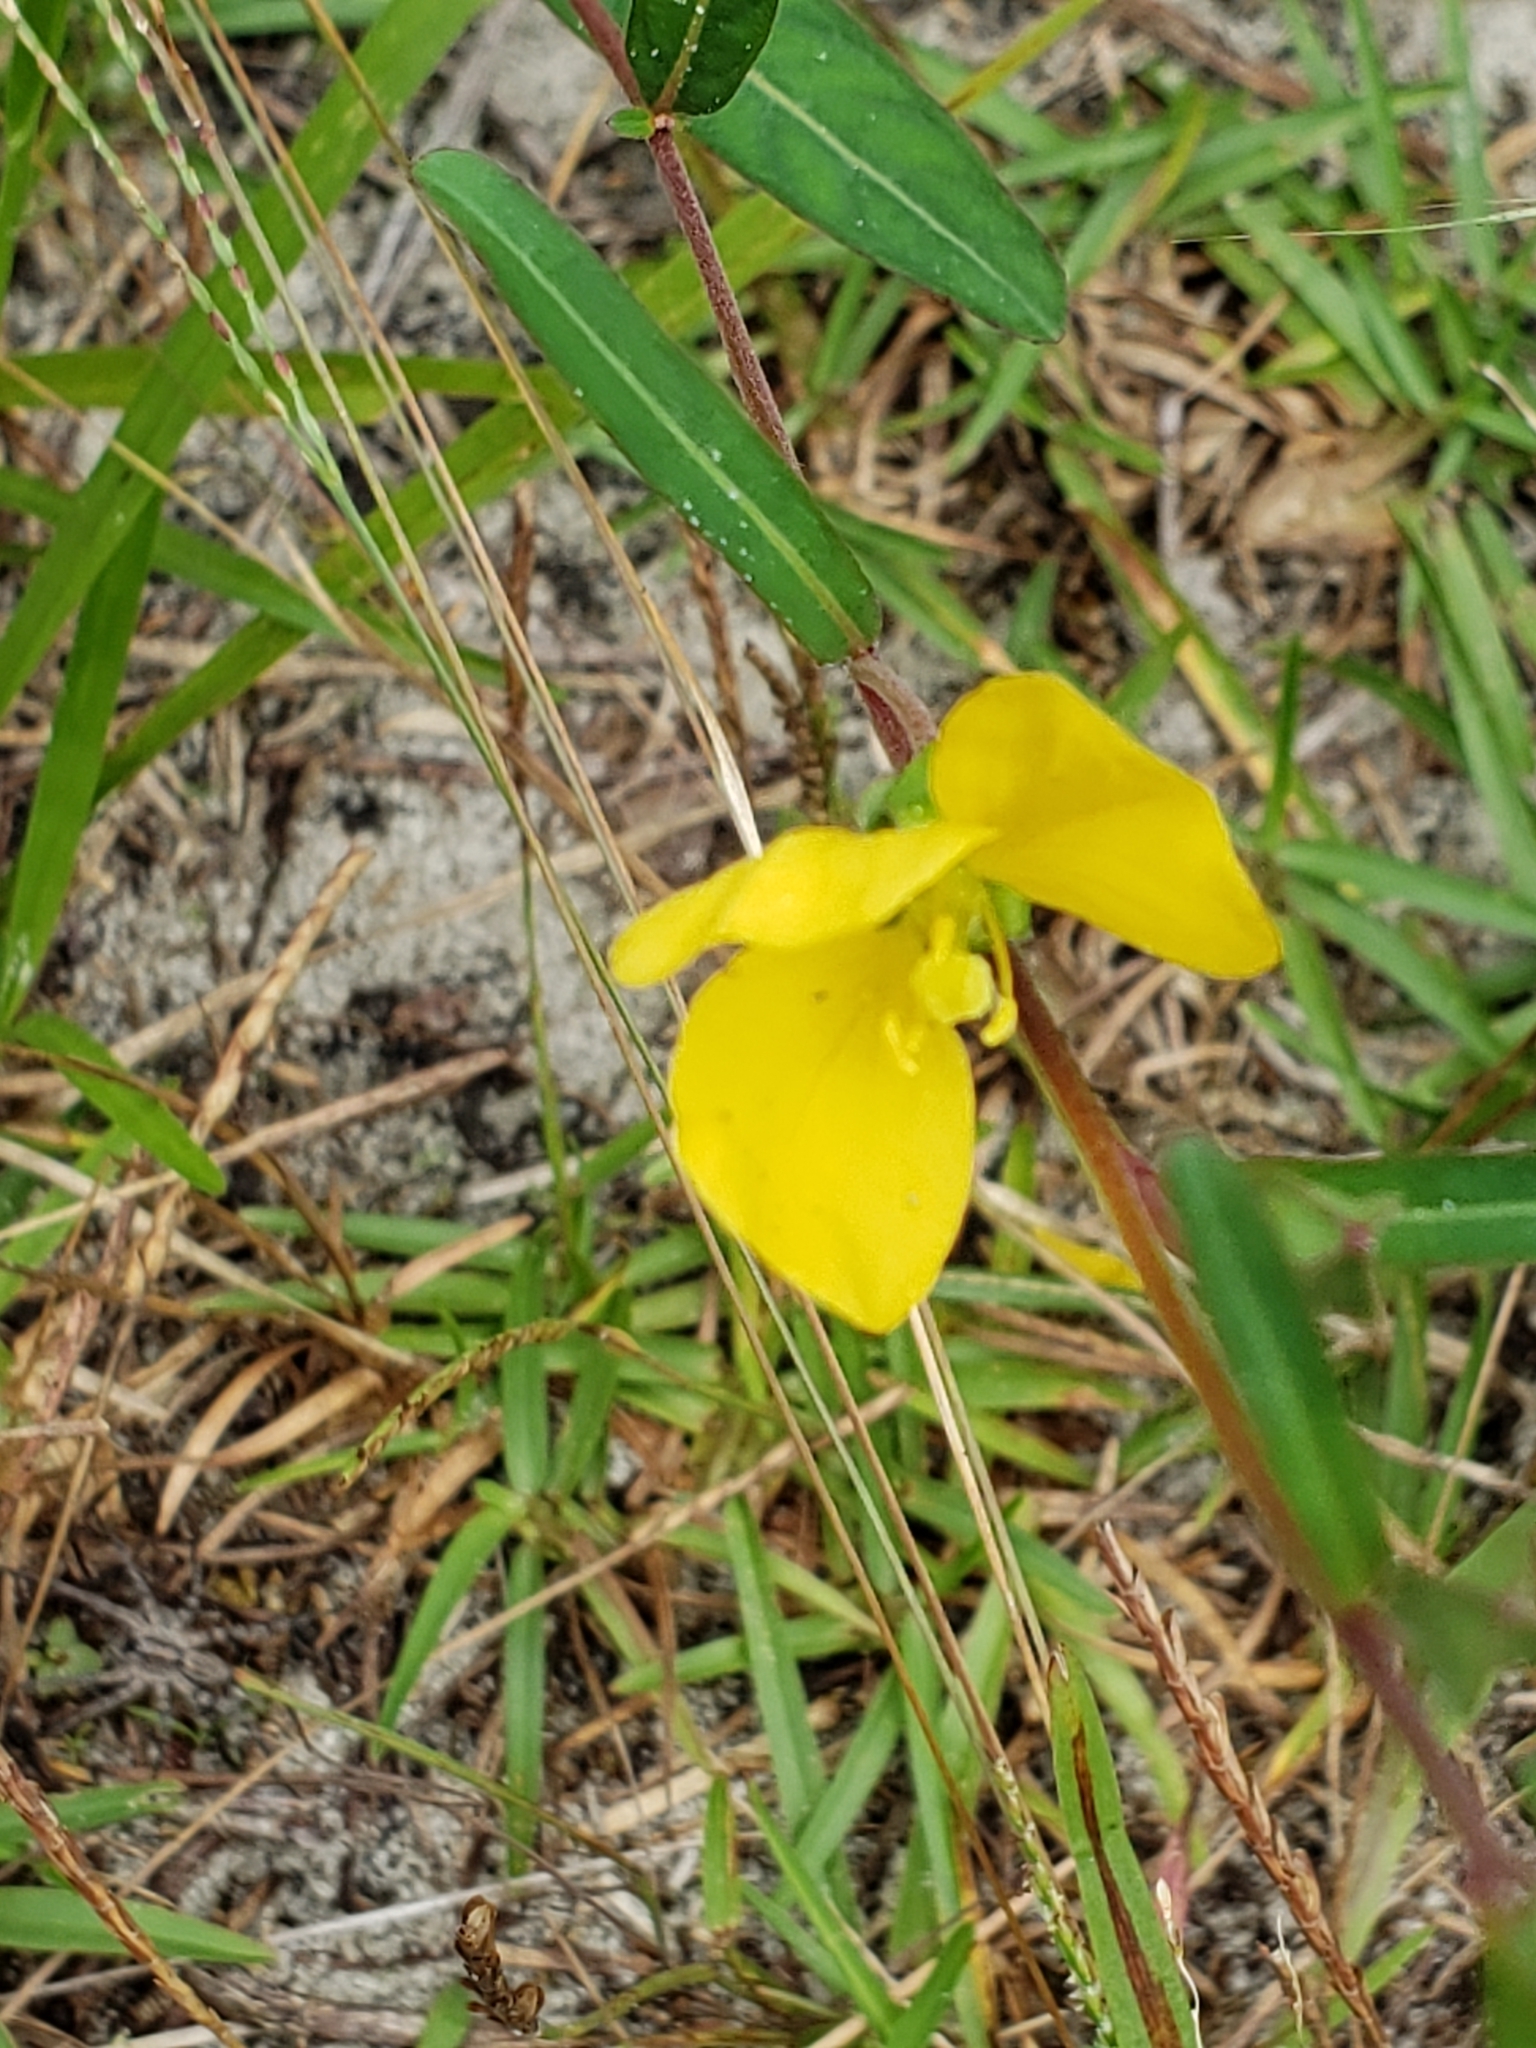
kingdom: Plantae
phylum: Tracheophyta
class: Magnoliopsida
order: Myrtales
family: Onagraceae
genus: Ludwigia
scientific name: Ludwigia maritima
